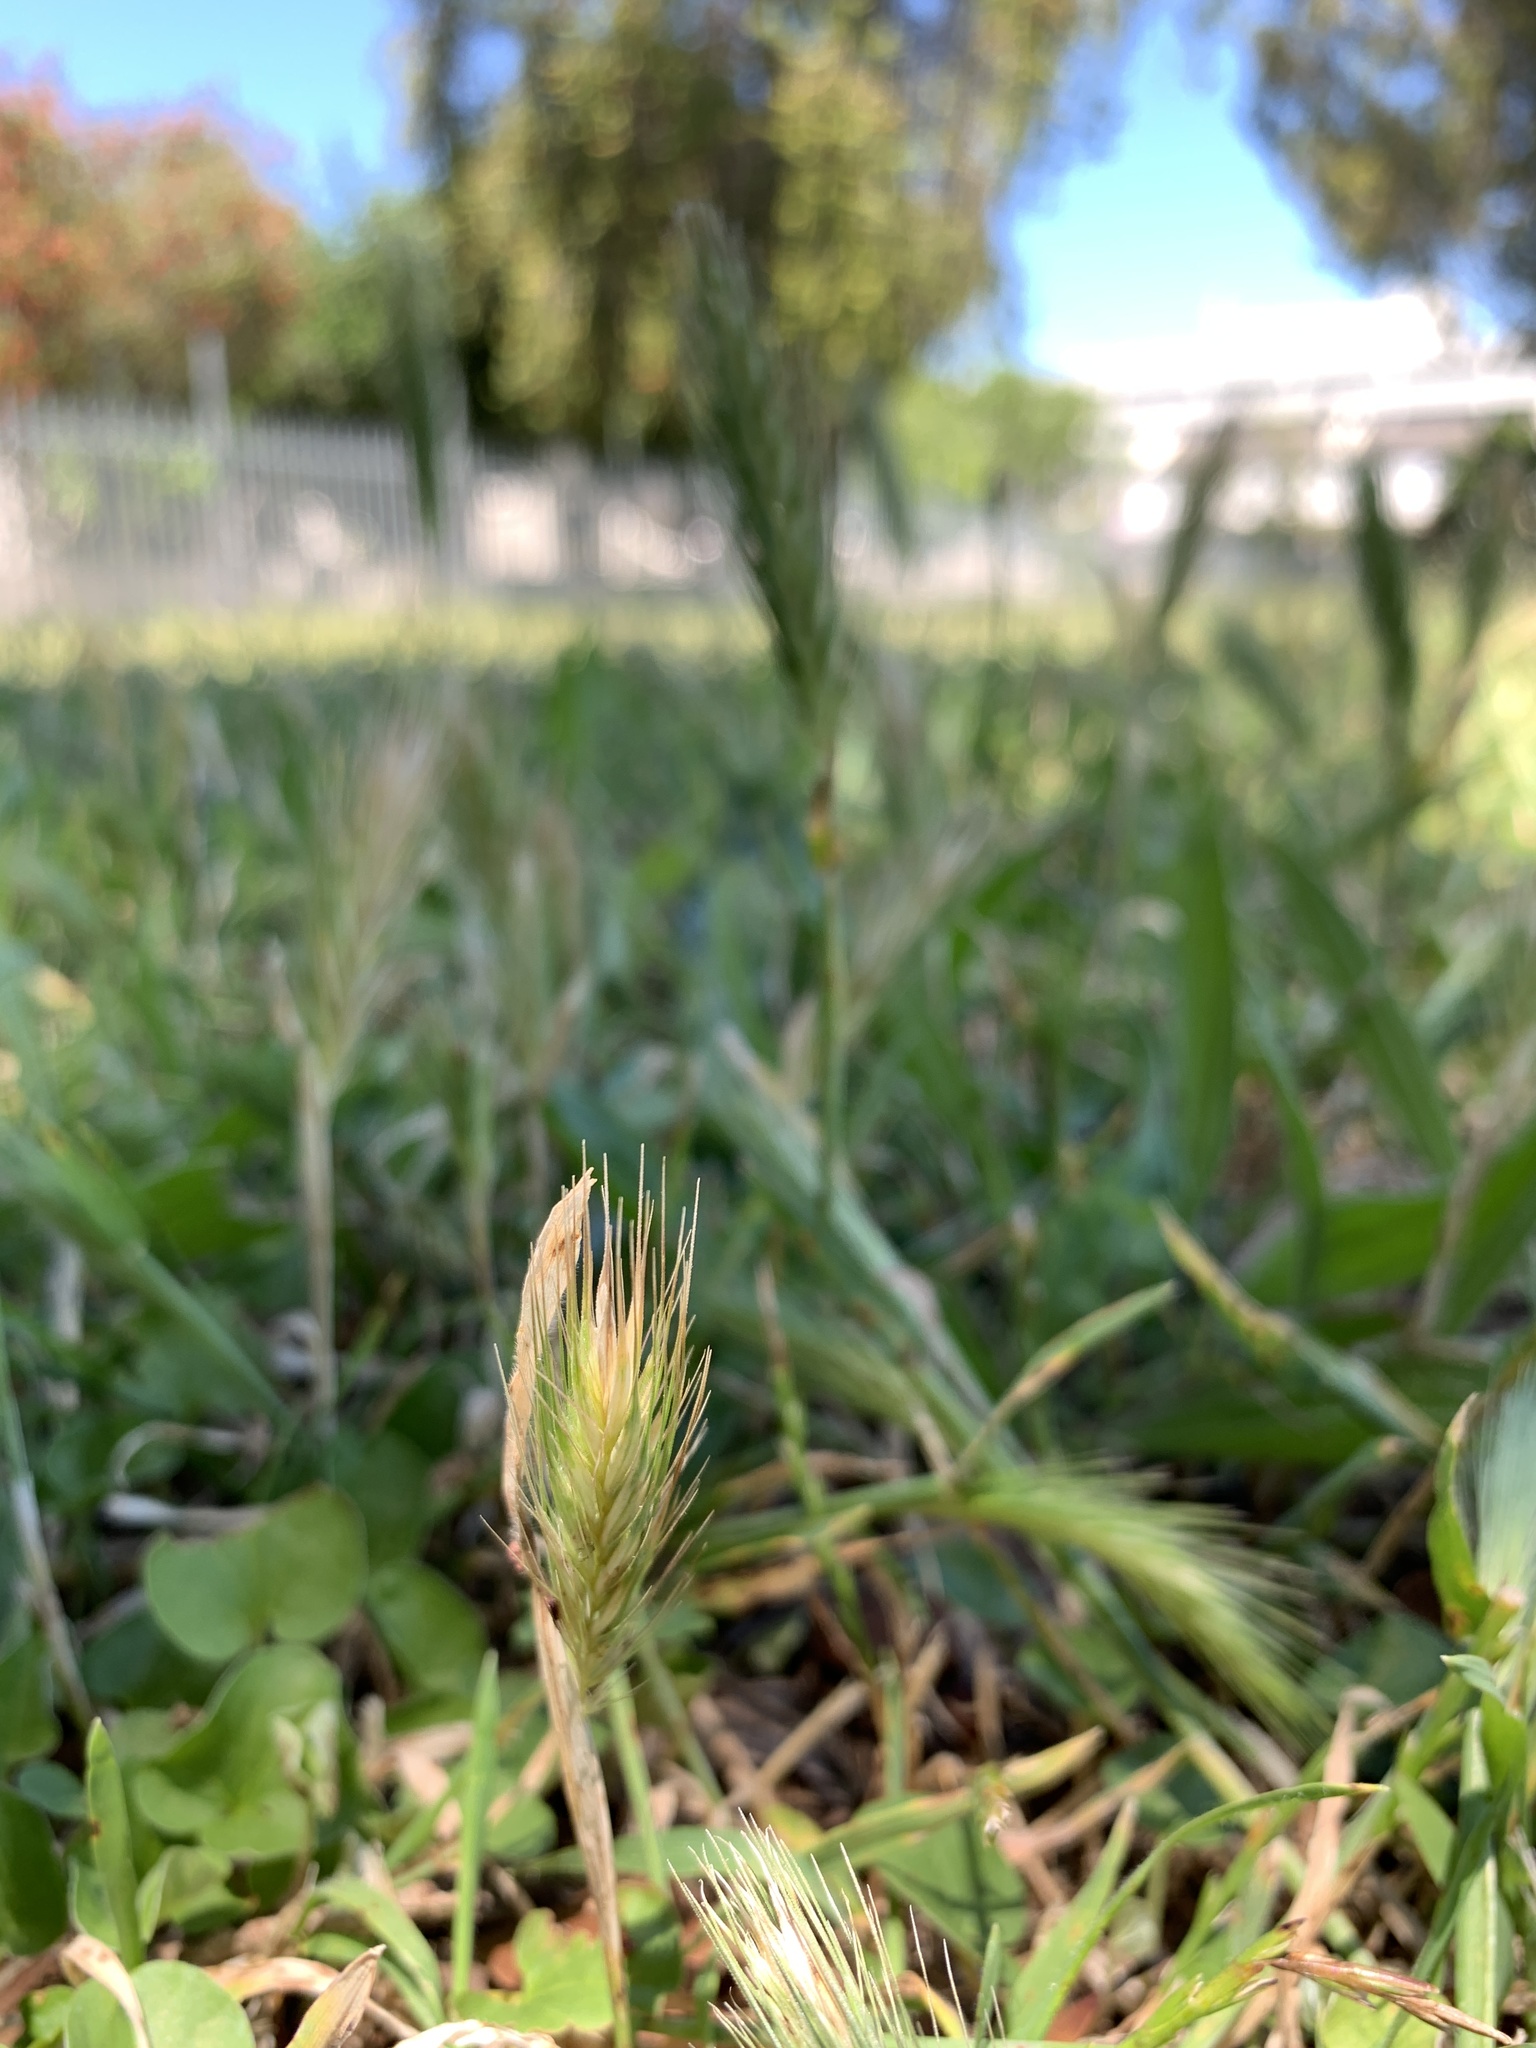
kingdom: Plantae
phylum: Tracheophyta
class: Liliopsida
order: Poales
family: Poaceae
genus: Hordeum
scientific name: Hordeum murinum
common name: Wall barley
